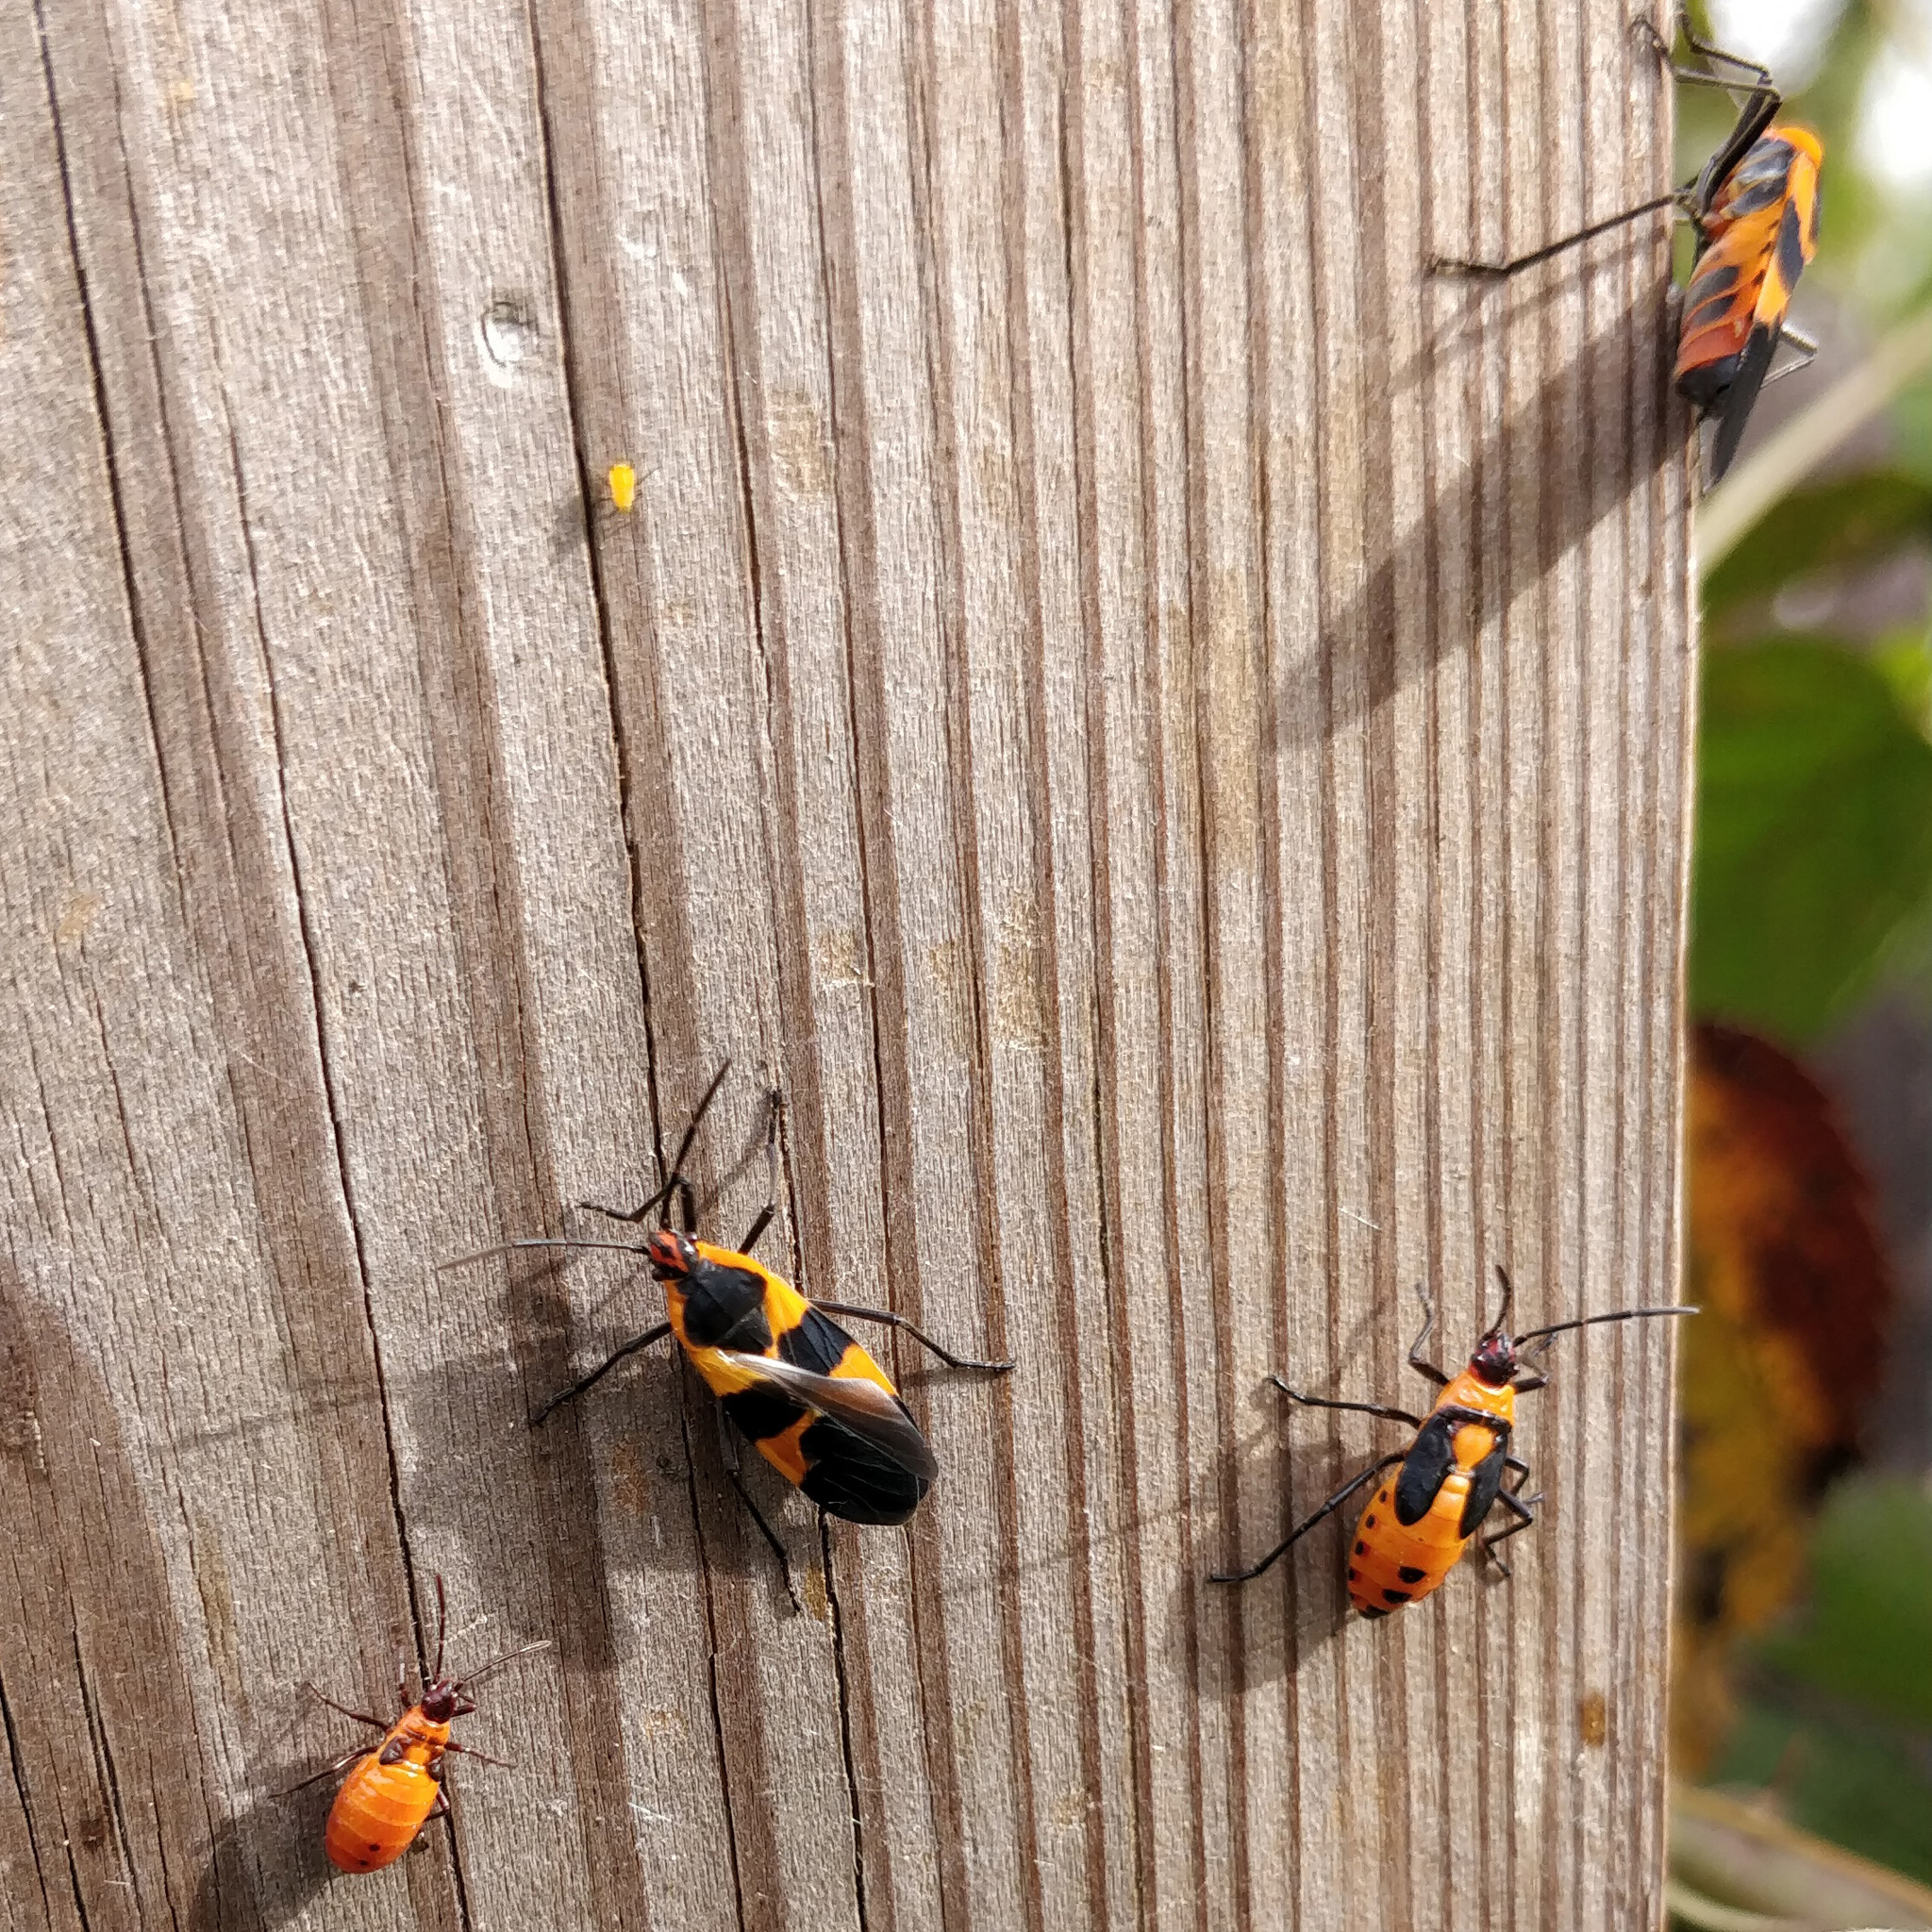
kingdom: Animalia
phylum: Arthropoda
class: Insecta
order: Hemiptera
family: Lygaeidae
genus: Oncopeltus
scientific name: Oncopeltus fasciatus
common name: Large milkweed bug
